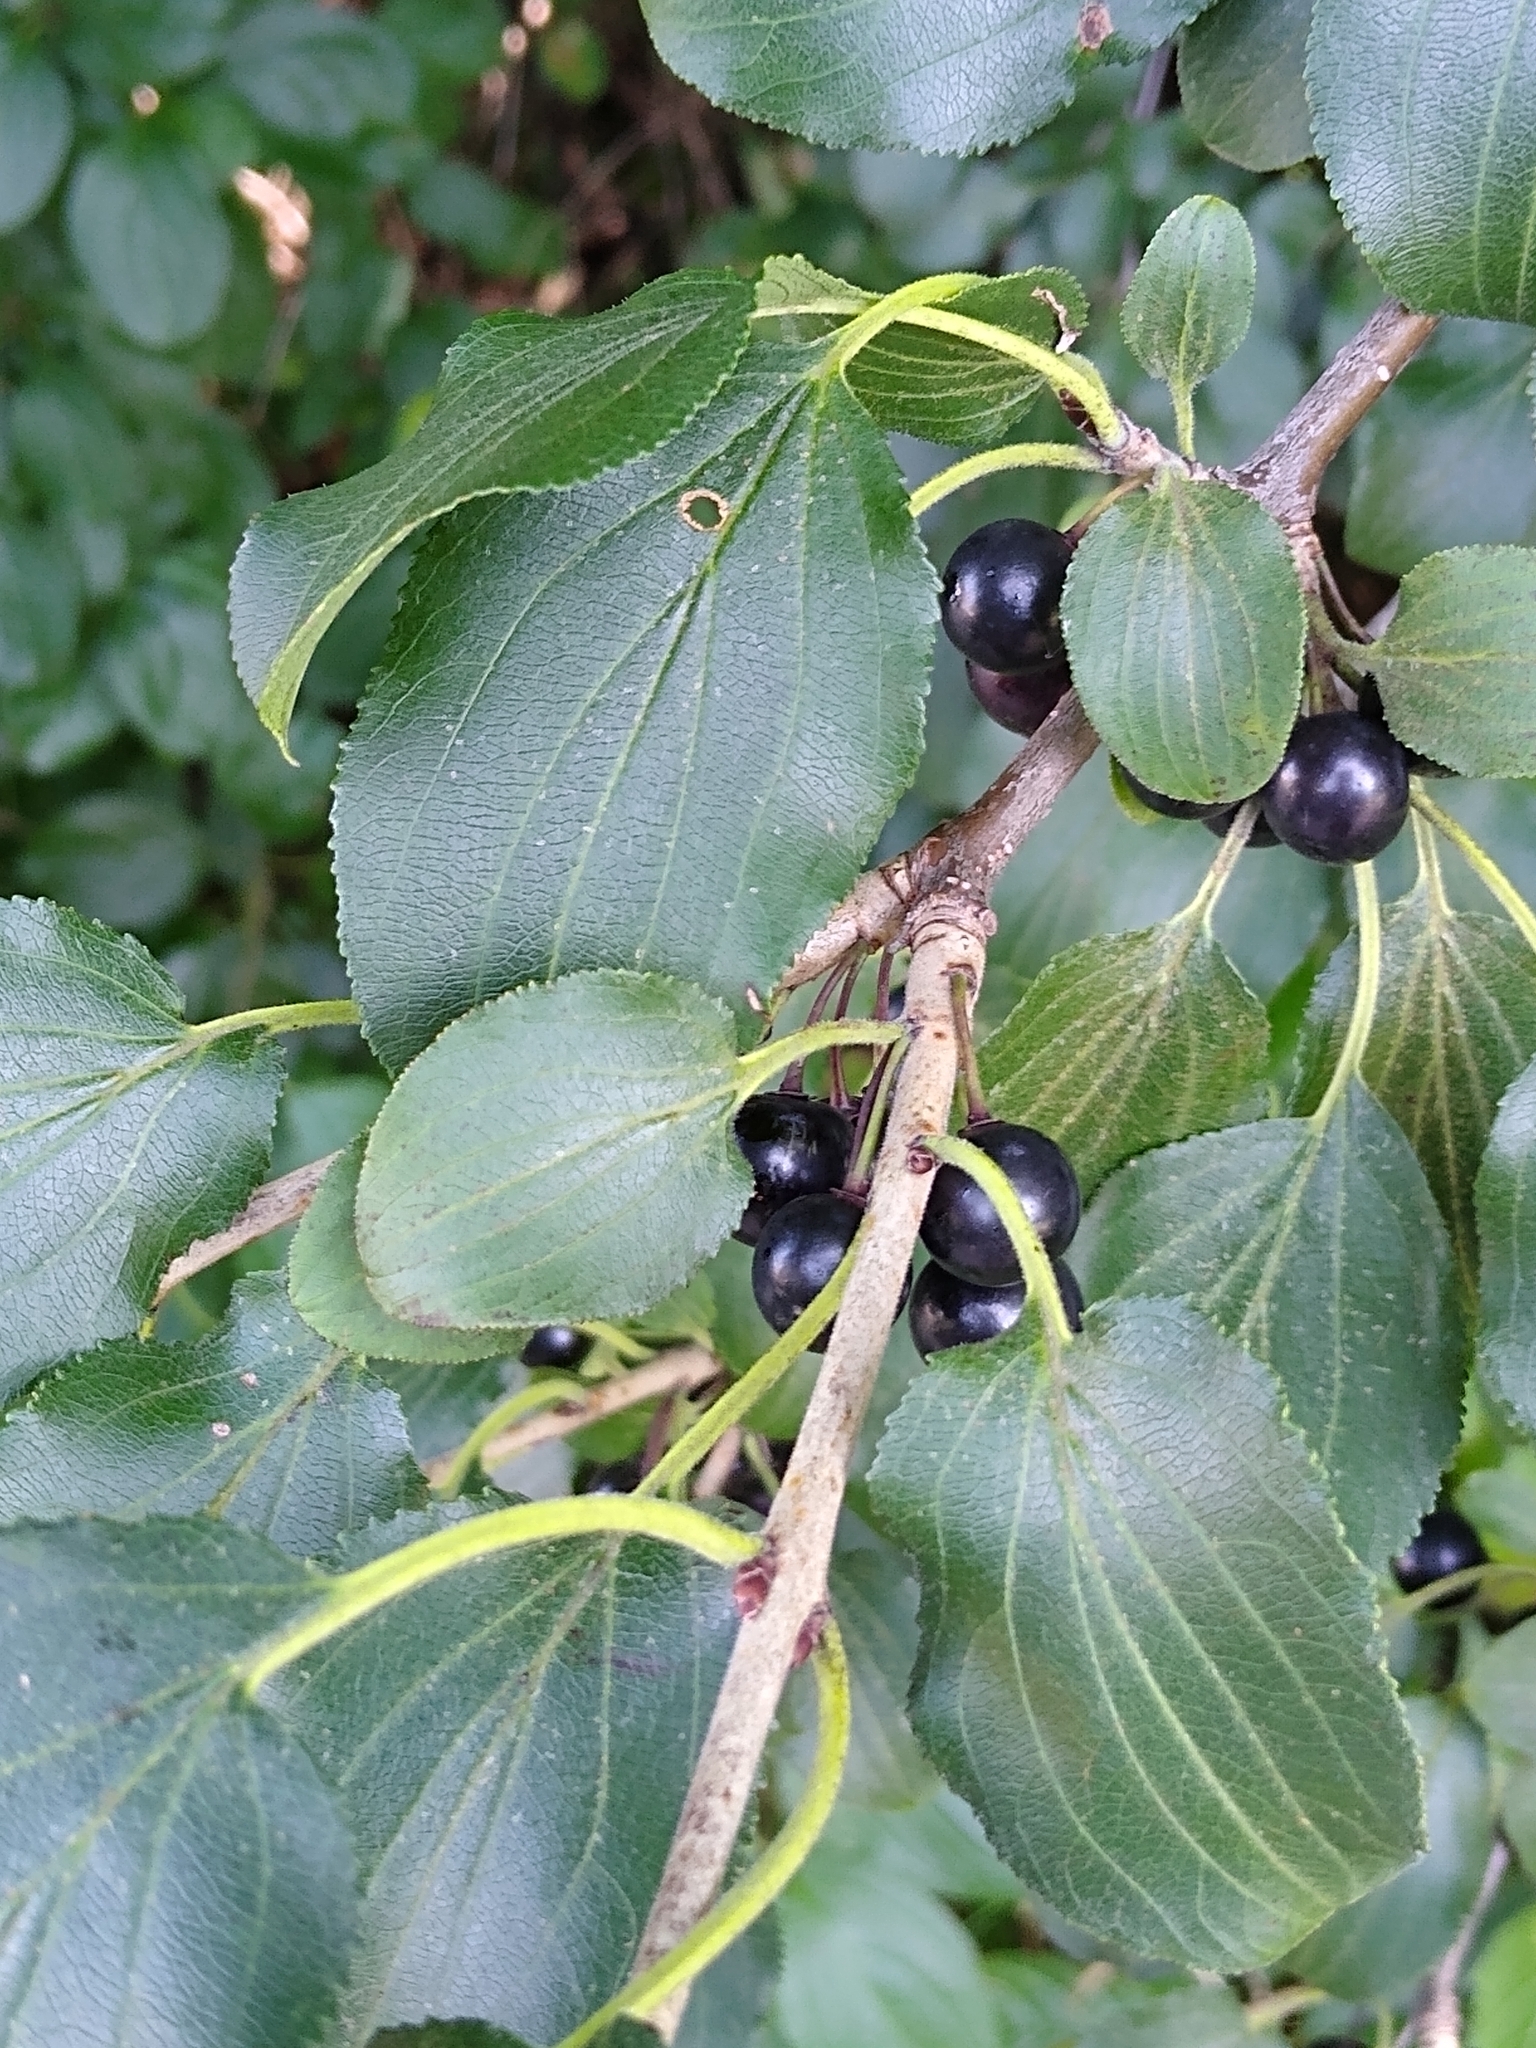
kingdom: Plantae
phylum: Tracheophyta
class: Magnoliopsida
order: Rosales
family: Rhamnaceae
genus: Rhamnus
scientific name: Rhamnus cathartica
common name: Common buckthorn
